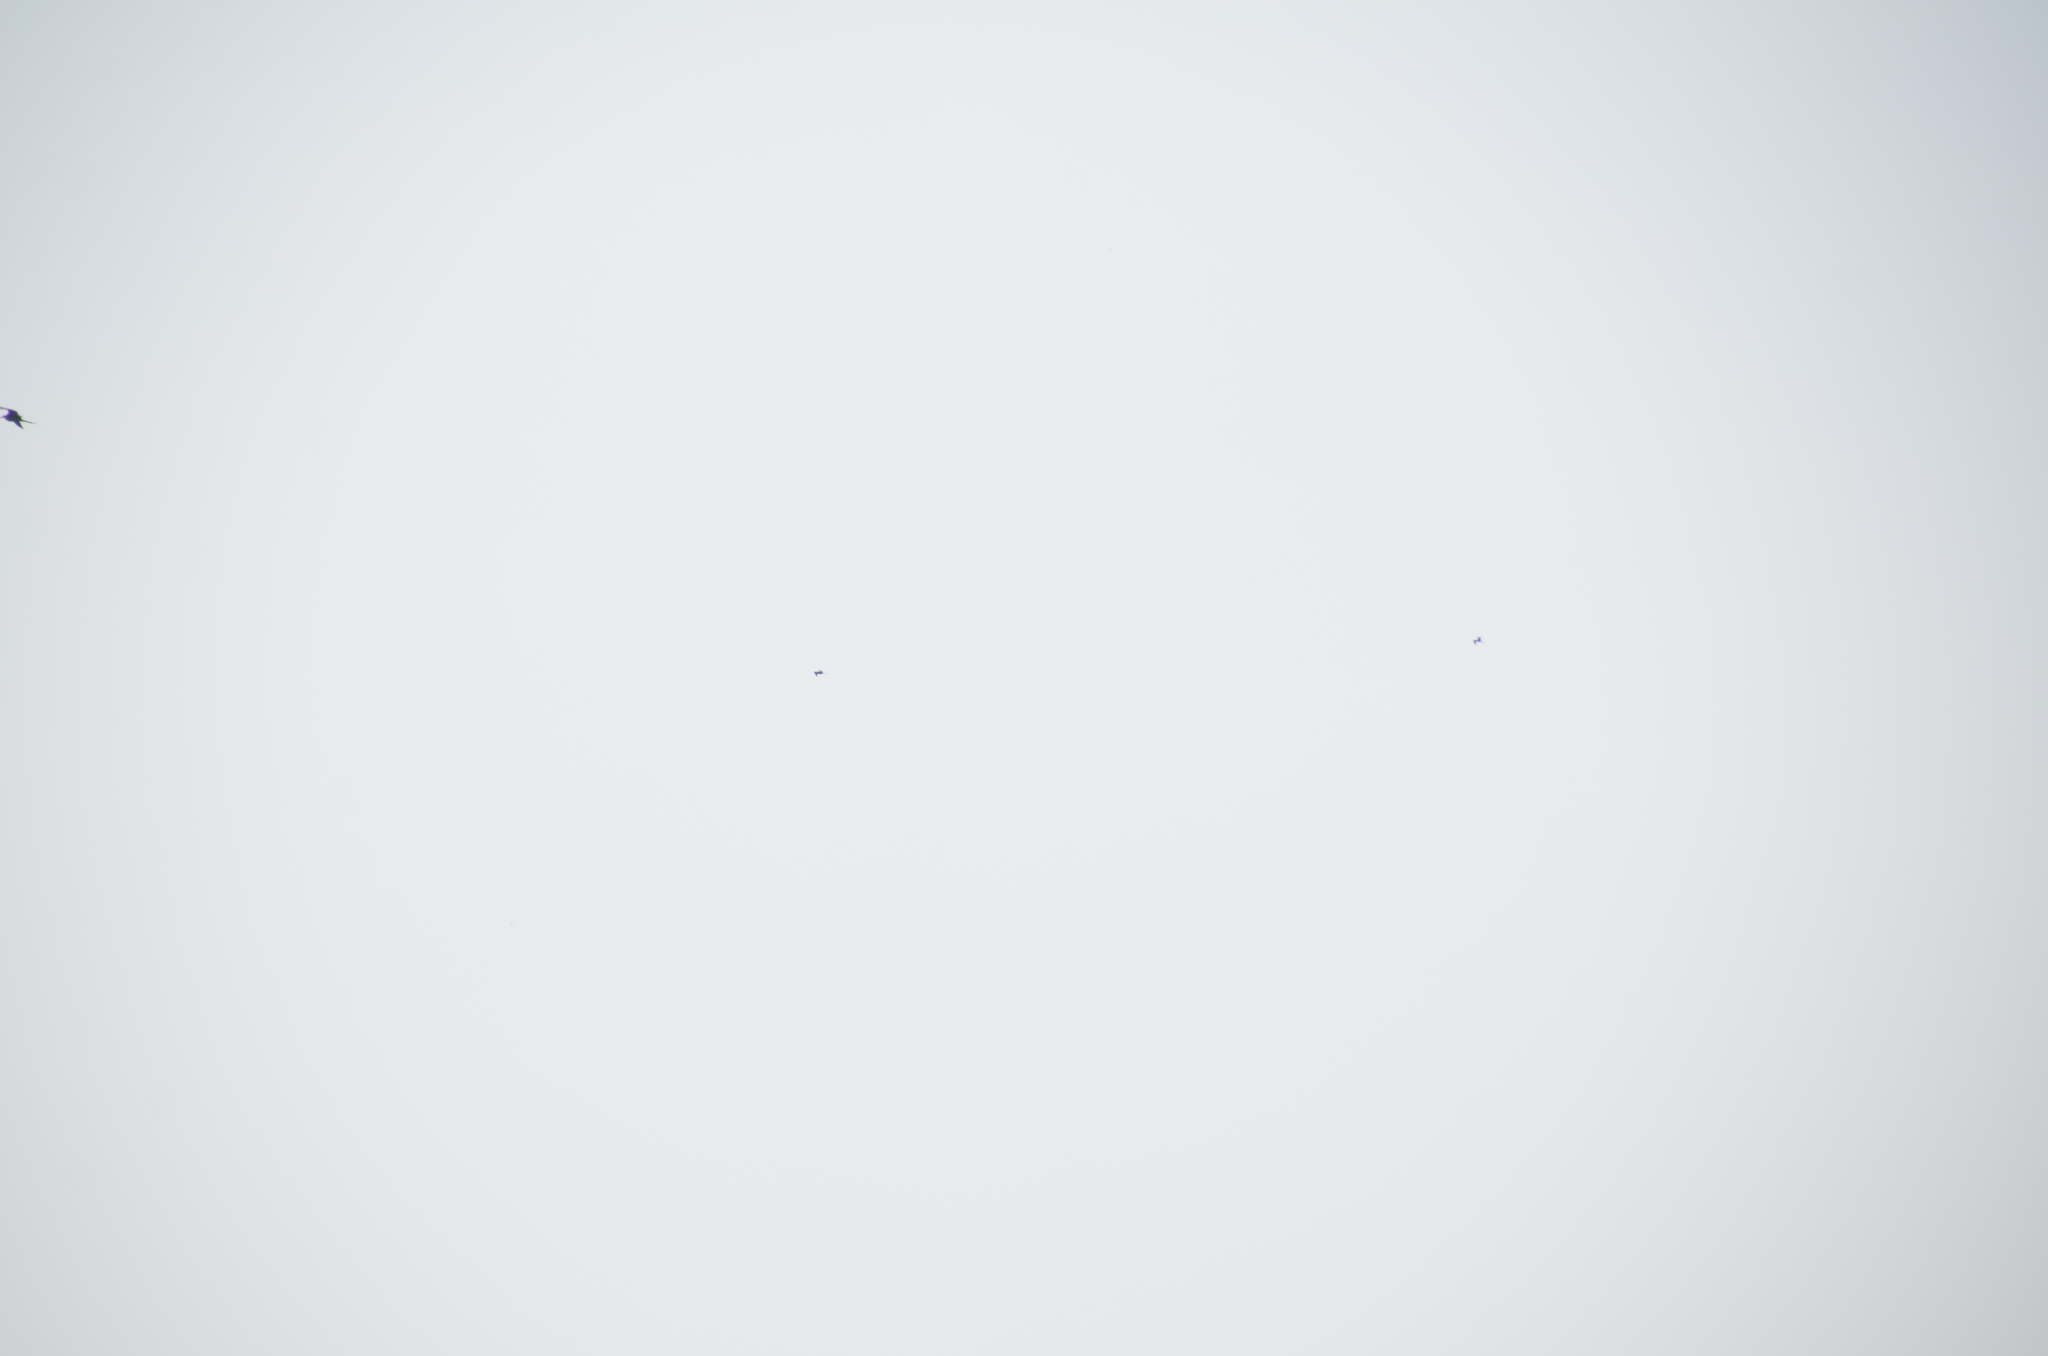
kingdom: Animalia
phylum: Chordata
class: Aves
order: Suliformes
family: Fregatidae
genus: Fregata
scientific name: Fregata magnificens
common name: Magnificent frigatebird
